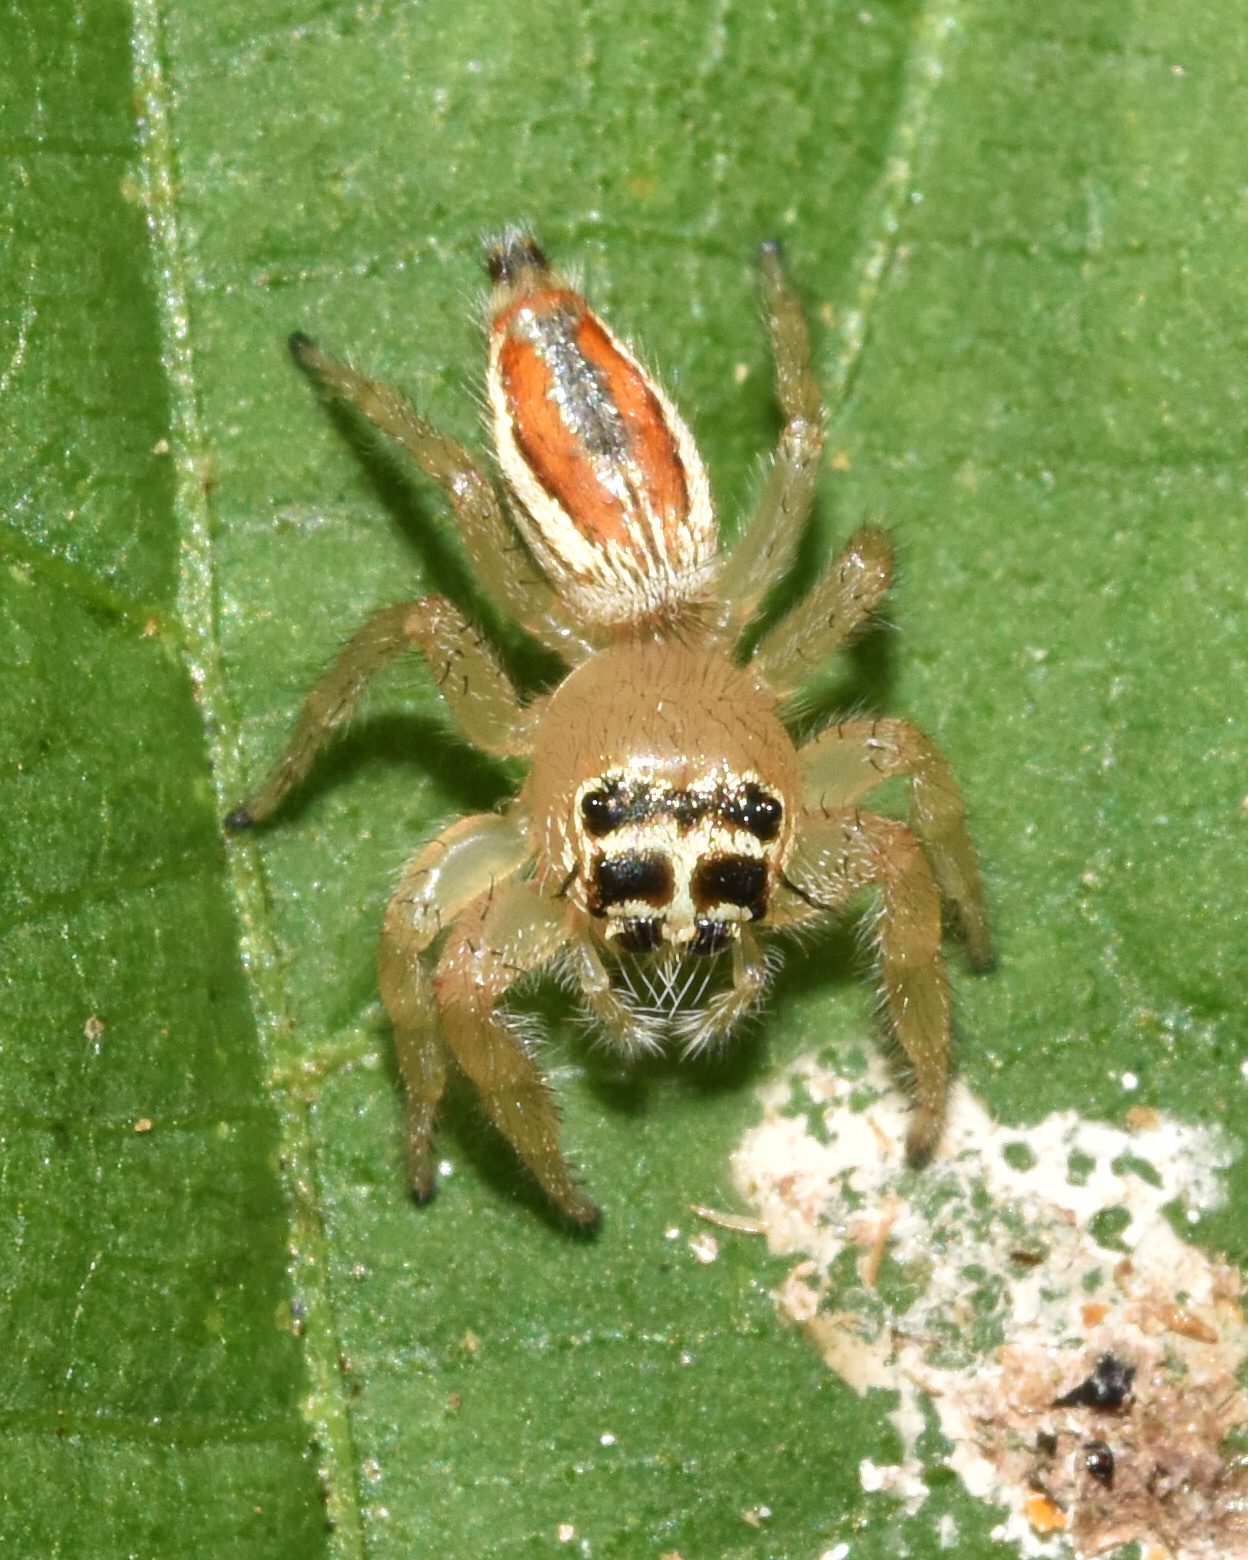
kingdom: Animalia
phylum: Arthropoda
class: Arachnida
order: Araneae
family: Salticidae
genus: Thyene
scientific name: Thyene inflata
